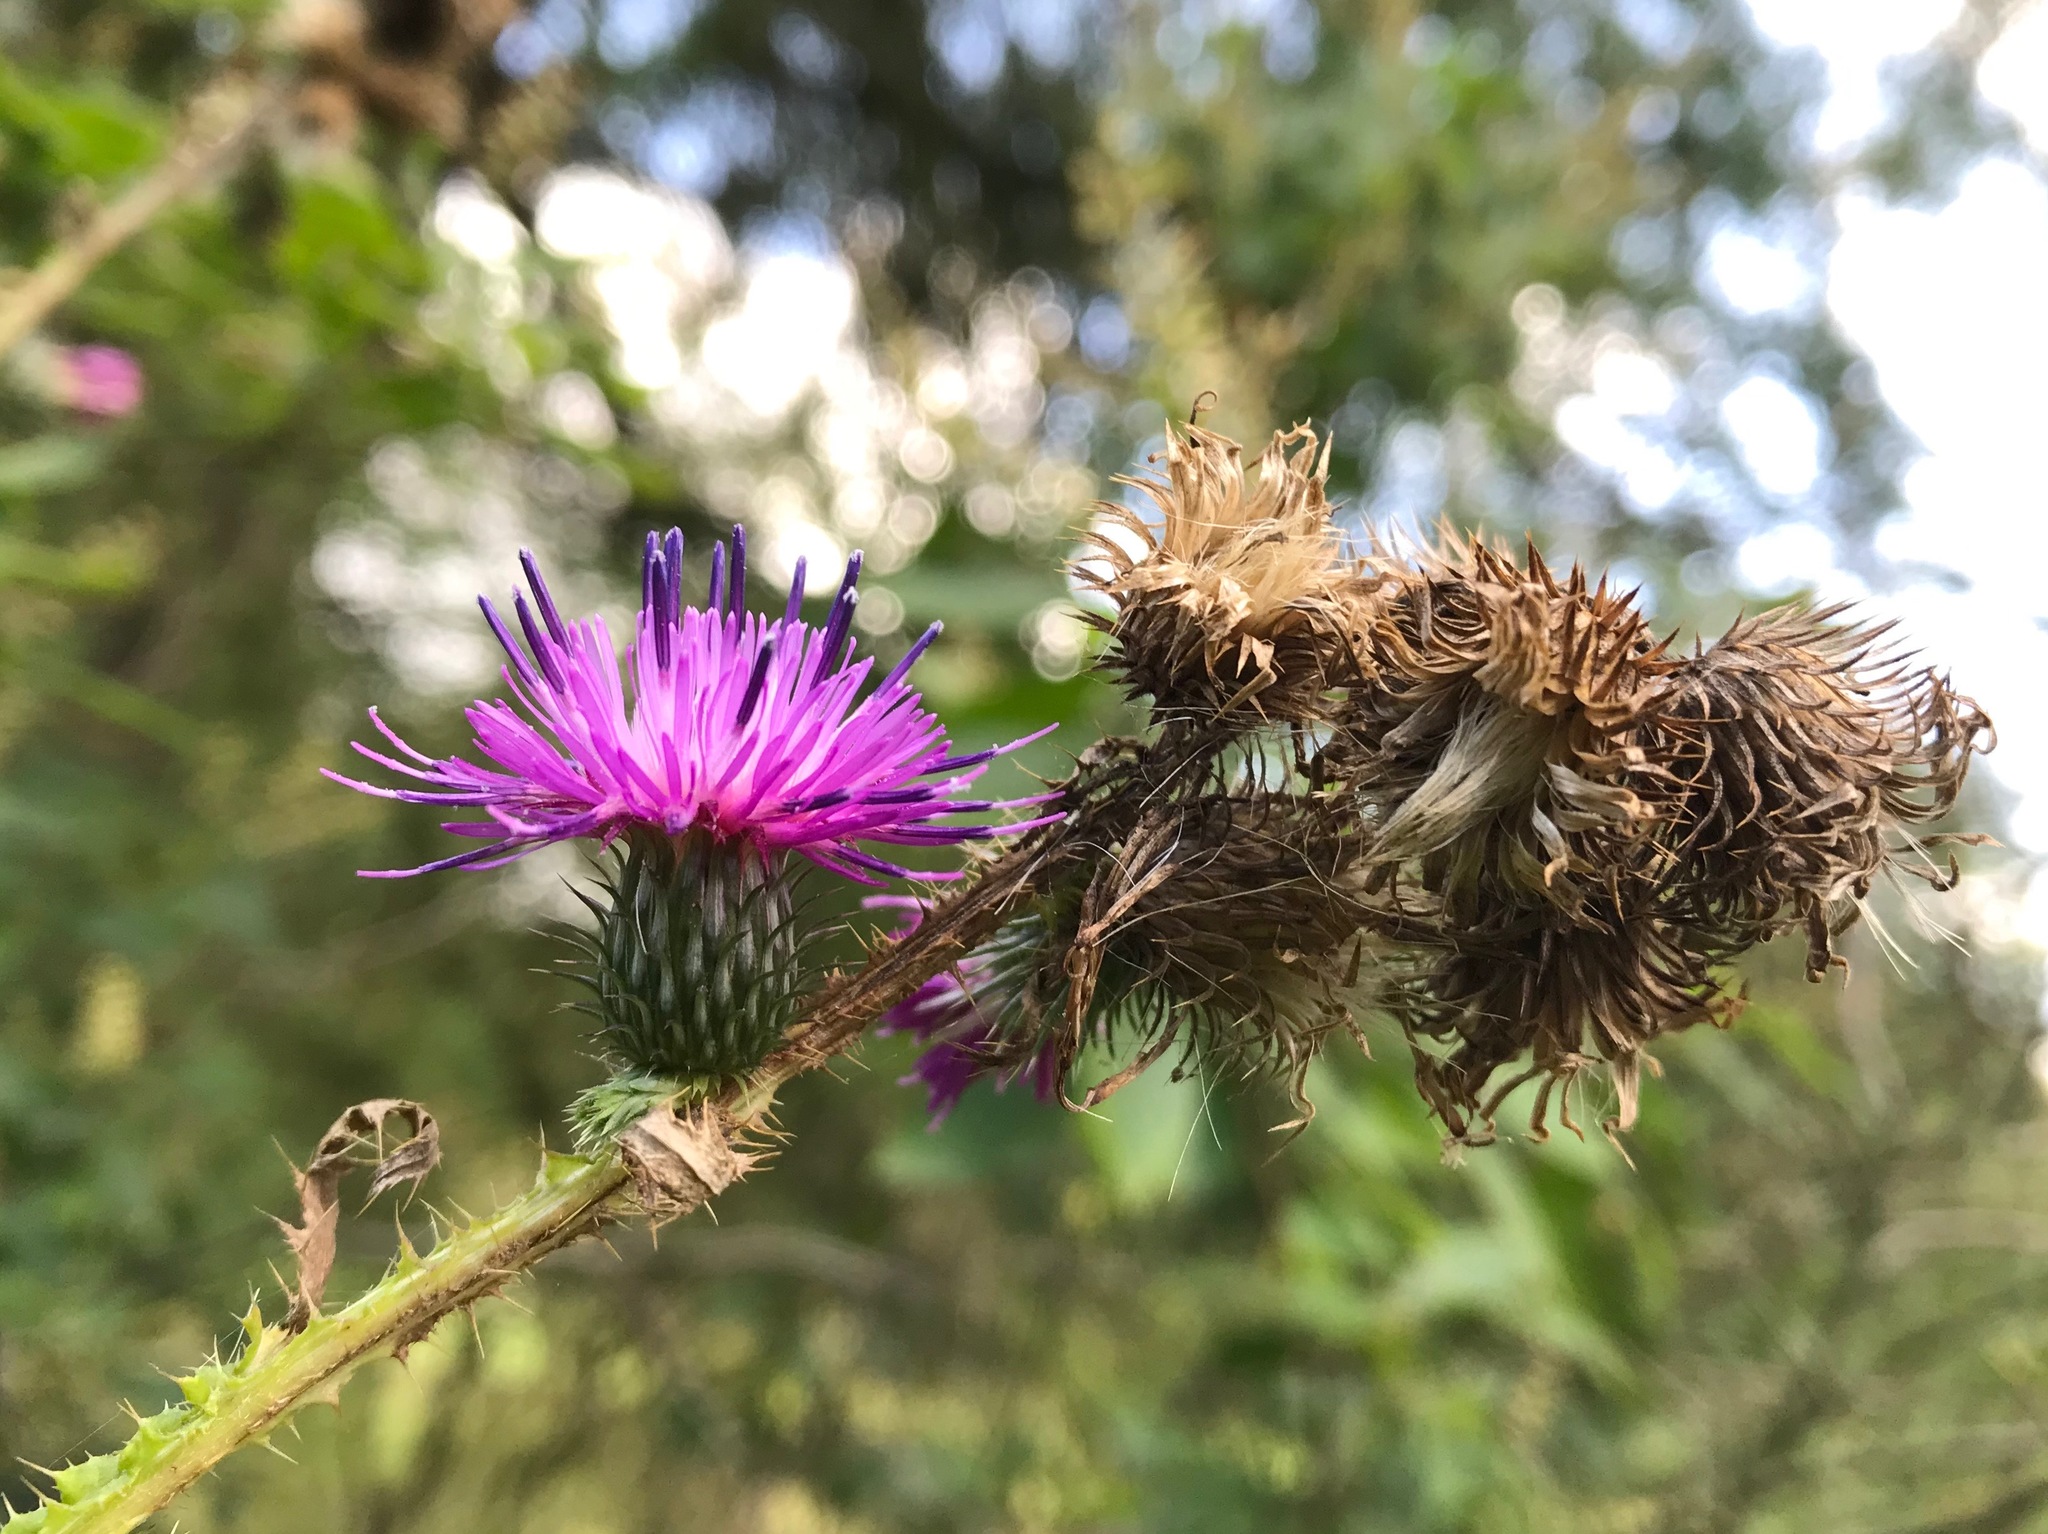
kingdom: Plantae
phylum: Tracheophyta
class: Magnoliopsida
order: Asterales
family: Asteraceae
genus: Carduus
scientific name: Carduus crispus
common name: Welted thistle
